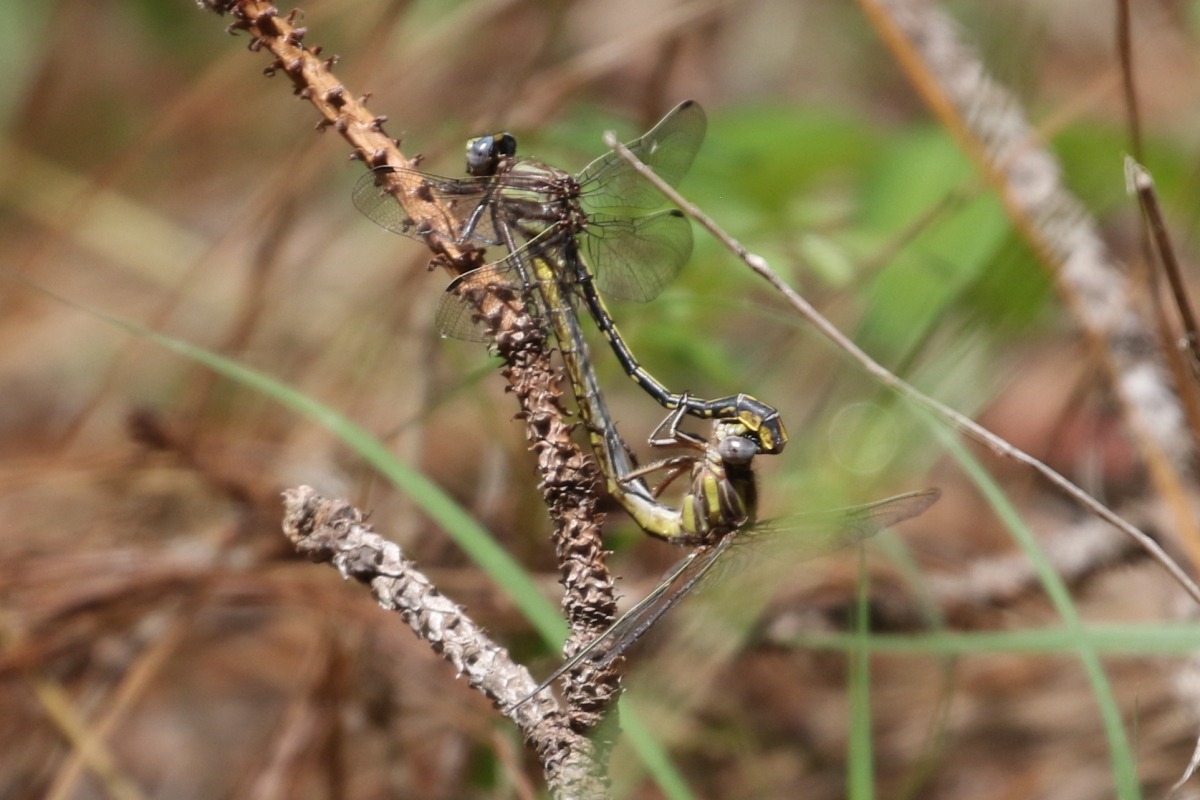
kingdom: Animalia
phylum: Arthropoda
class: Insecta
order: Odonata
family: Gomphidae
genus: Phanogomphus
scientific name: Phanogomphus oklahomensis
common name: Oklahoma clubtail
